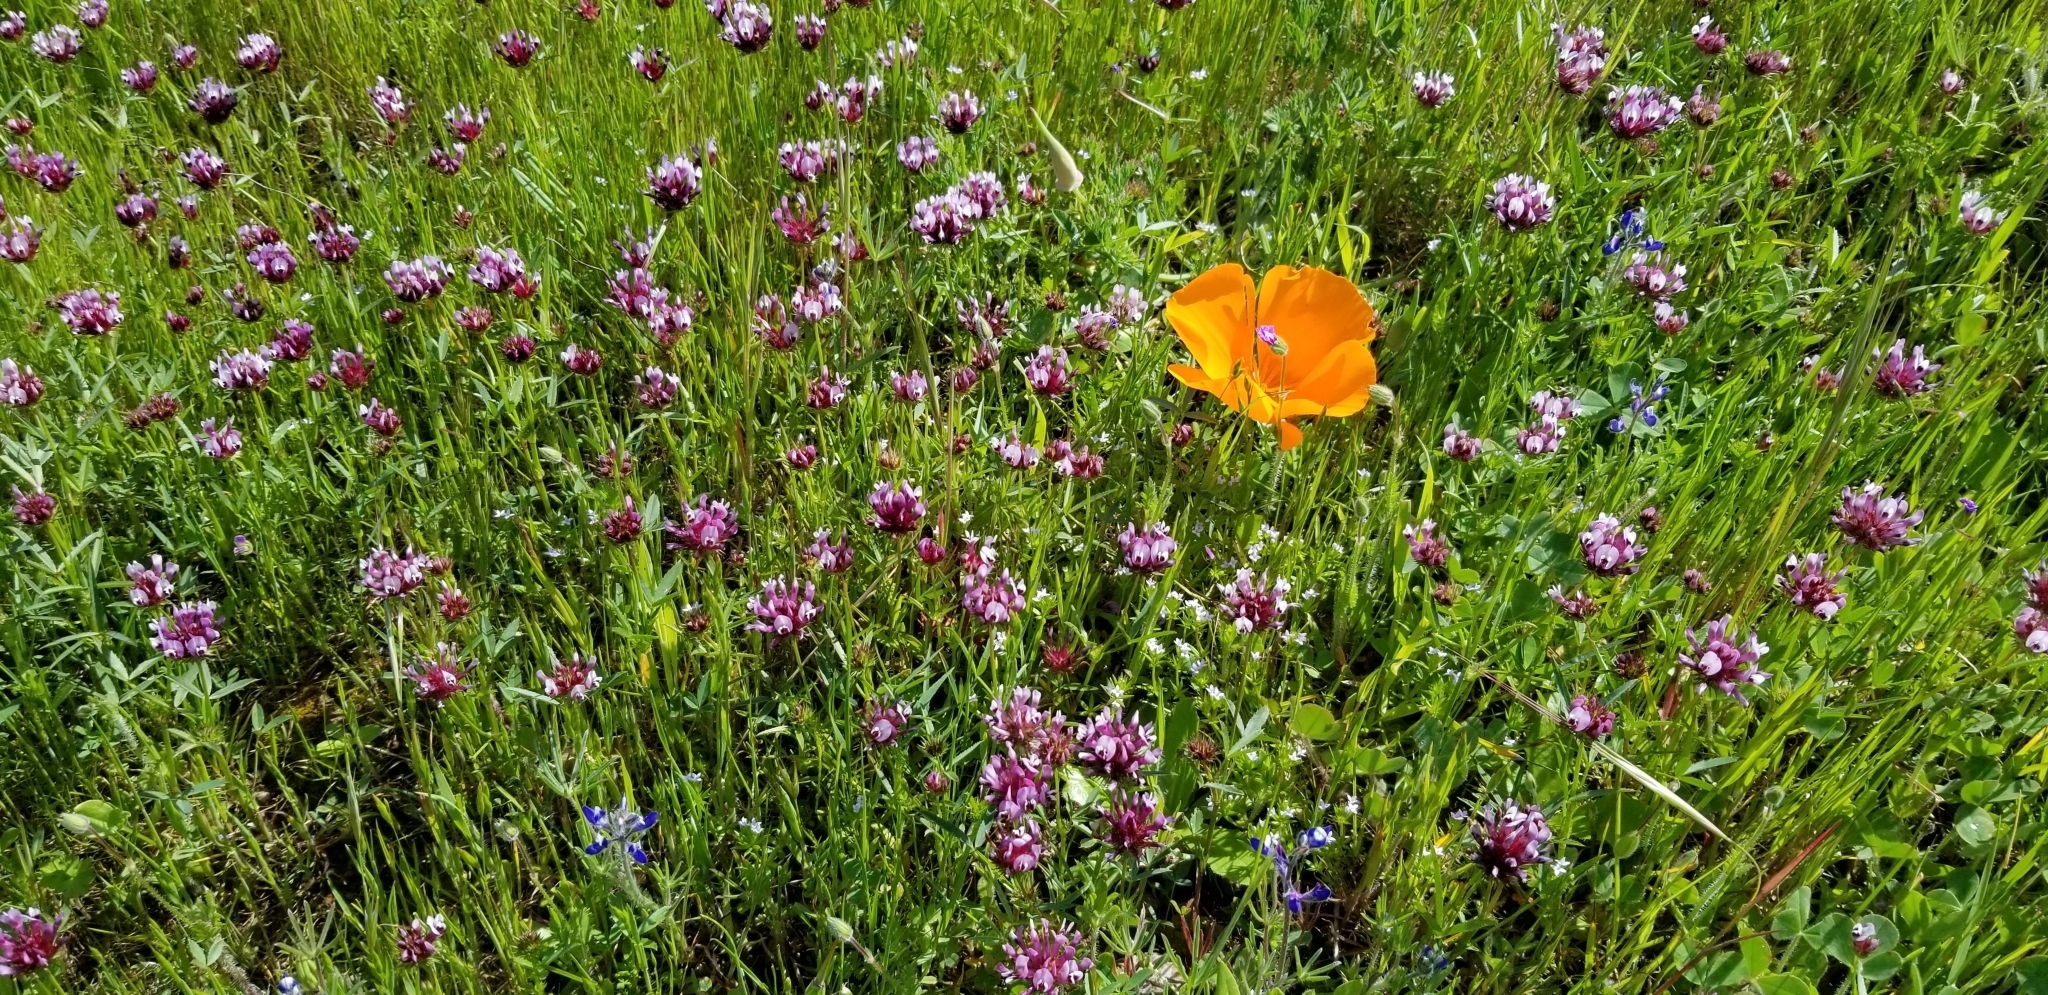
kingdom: Plantae
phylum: Tracheophyta
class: Magnoliopsida
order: Fabales
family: Fabaceae
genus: Trifolium
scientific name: Trifolium willdenovii
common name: Tomcat clover
